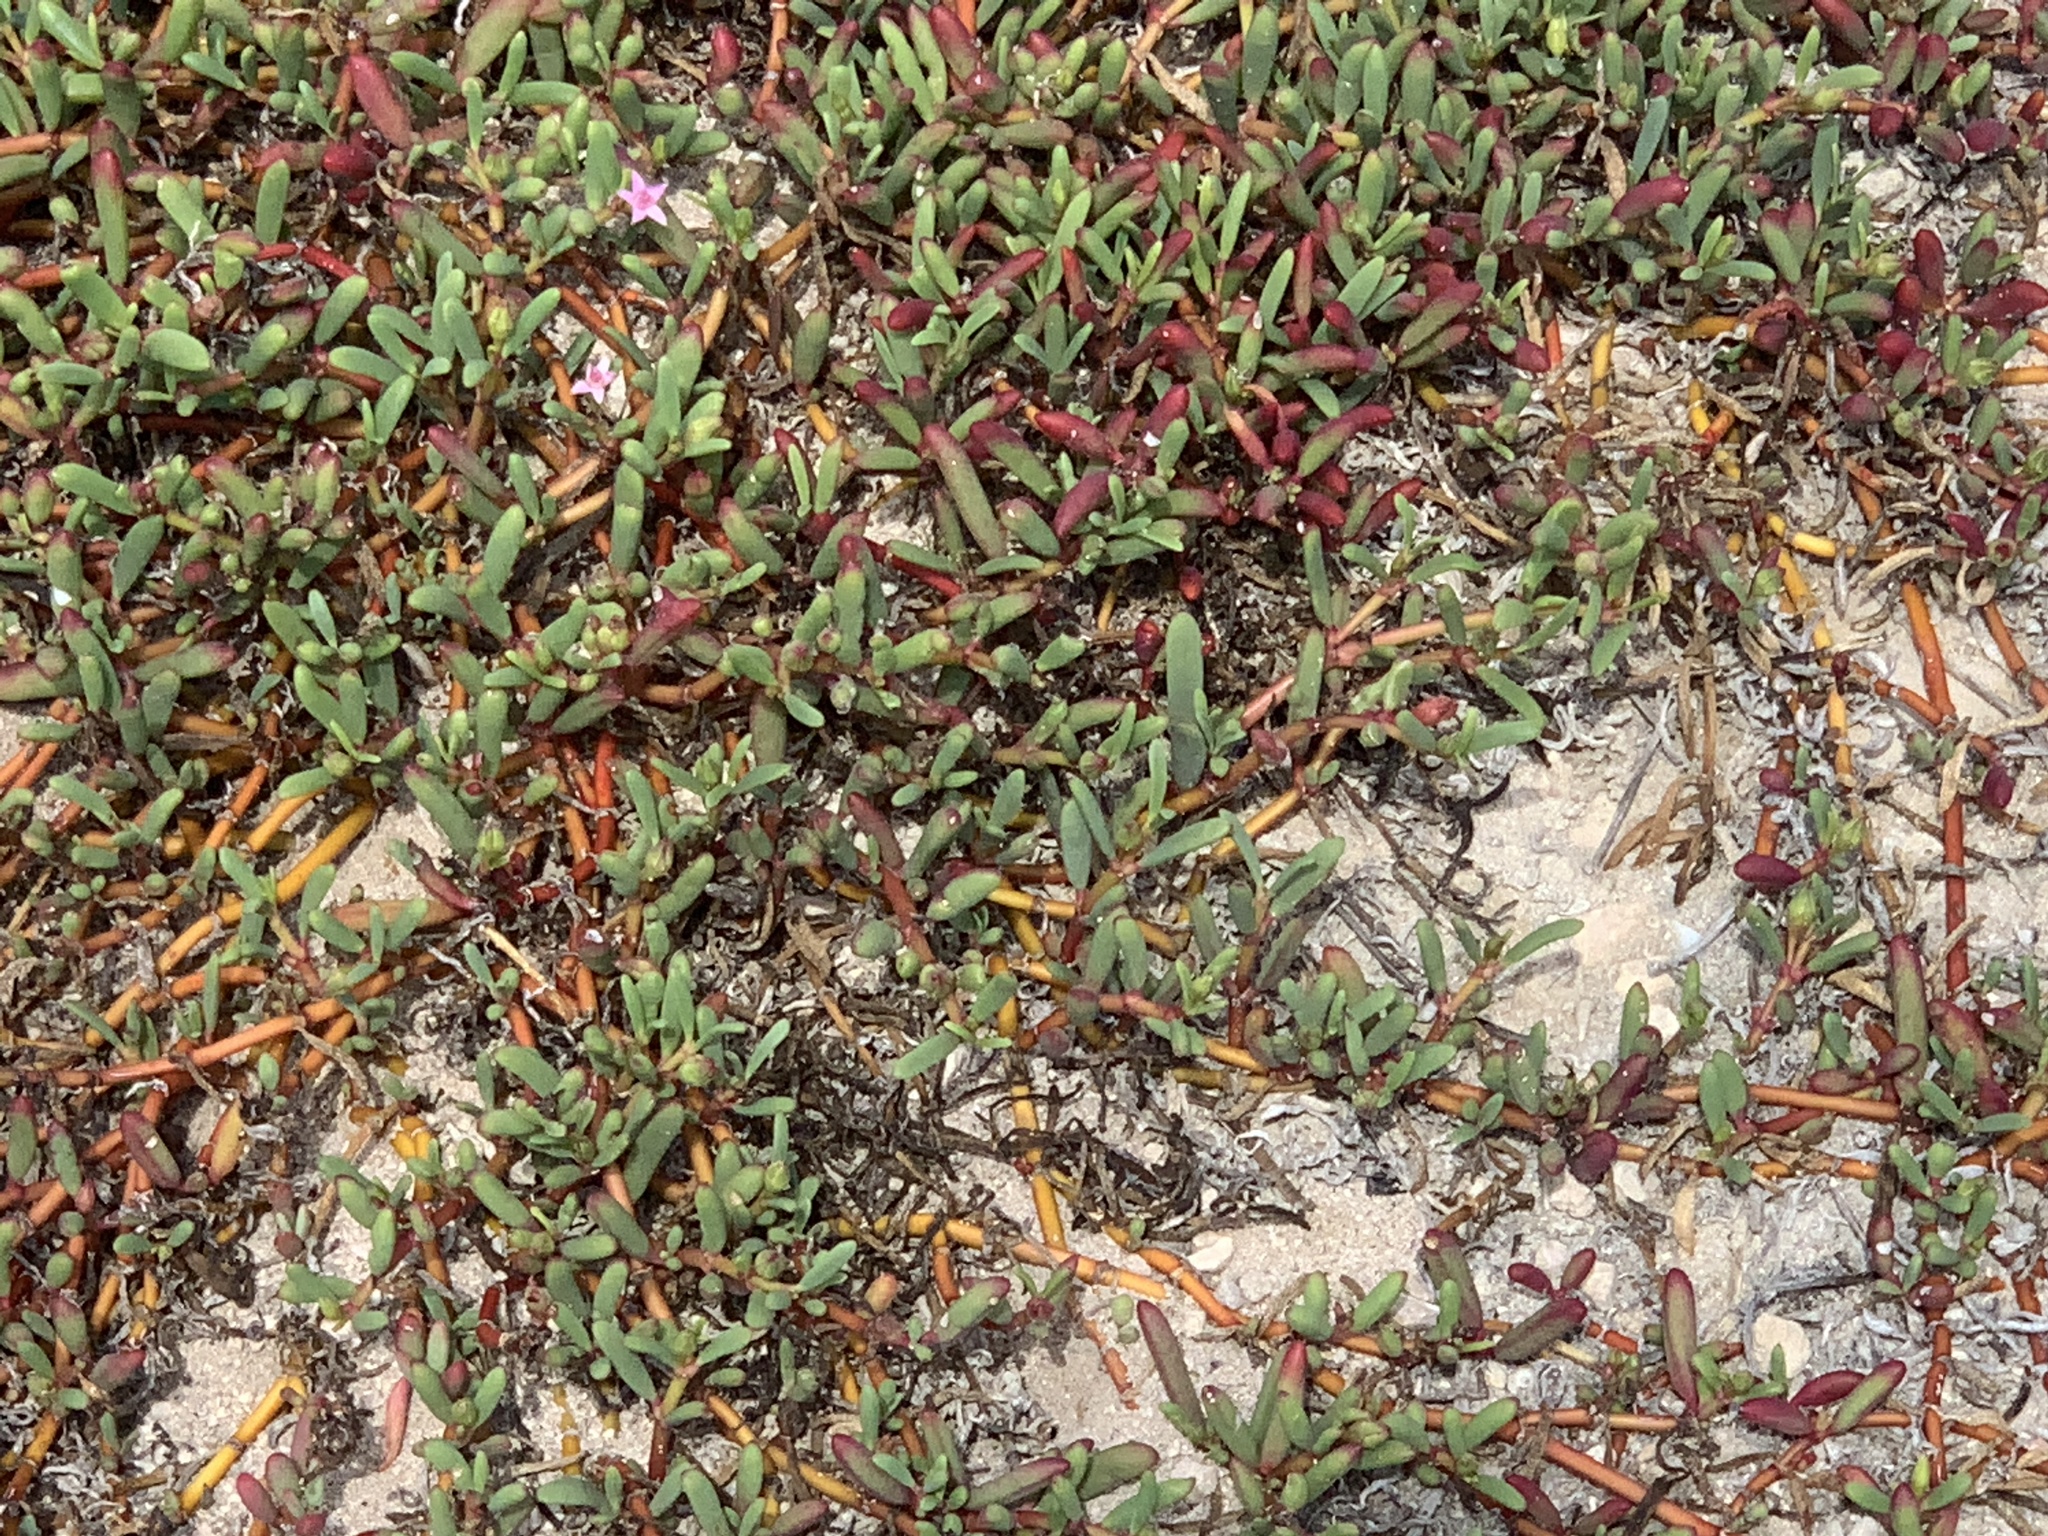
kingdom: Plantae
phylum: Tracheophyta
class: Magnoliopsida
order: Caryophyllales
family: Aizoaceae
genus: Sesuvium
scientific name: Sesuvium portulacastrum
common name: Sea-purslane
